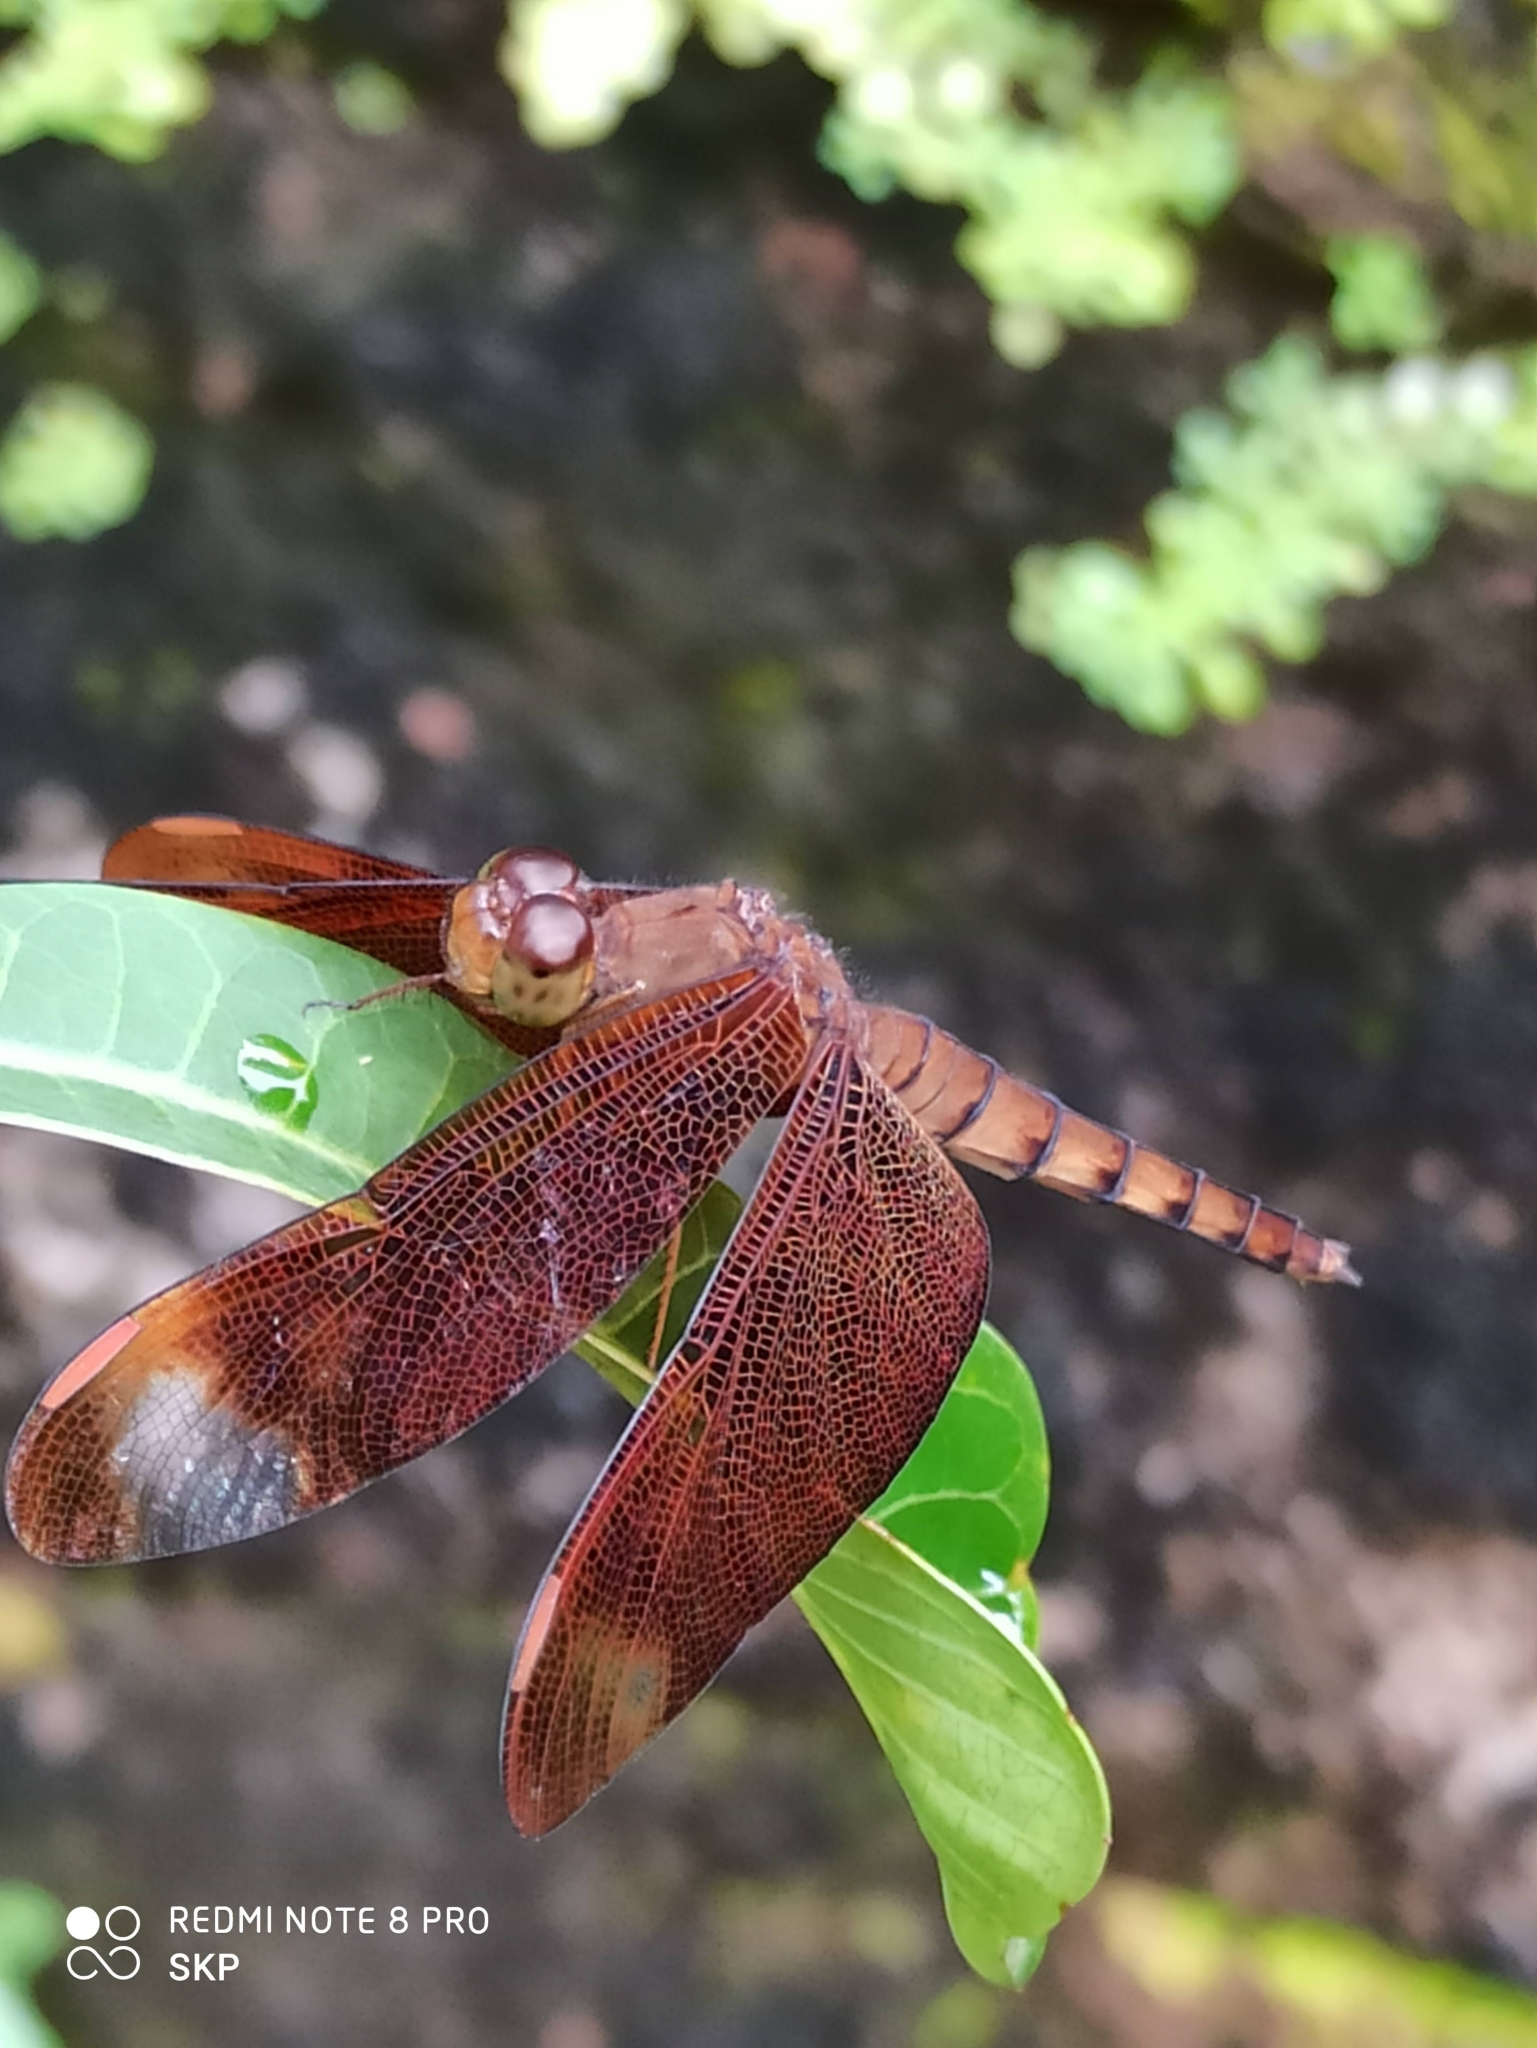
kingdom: Animalia
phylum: Arthropoda
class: Insecta
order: Odonata
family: Libellulidae
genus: Neurothemis
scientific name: Neurothemis fulvia
